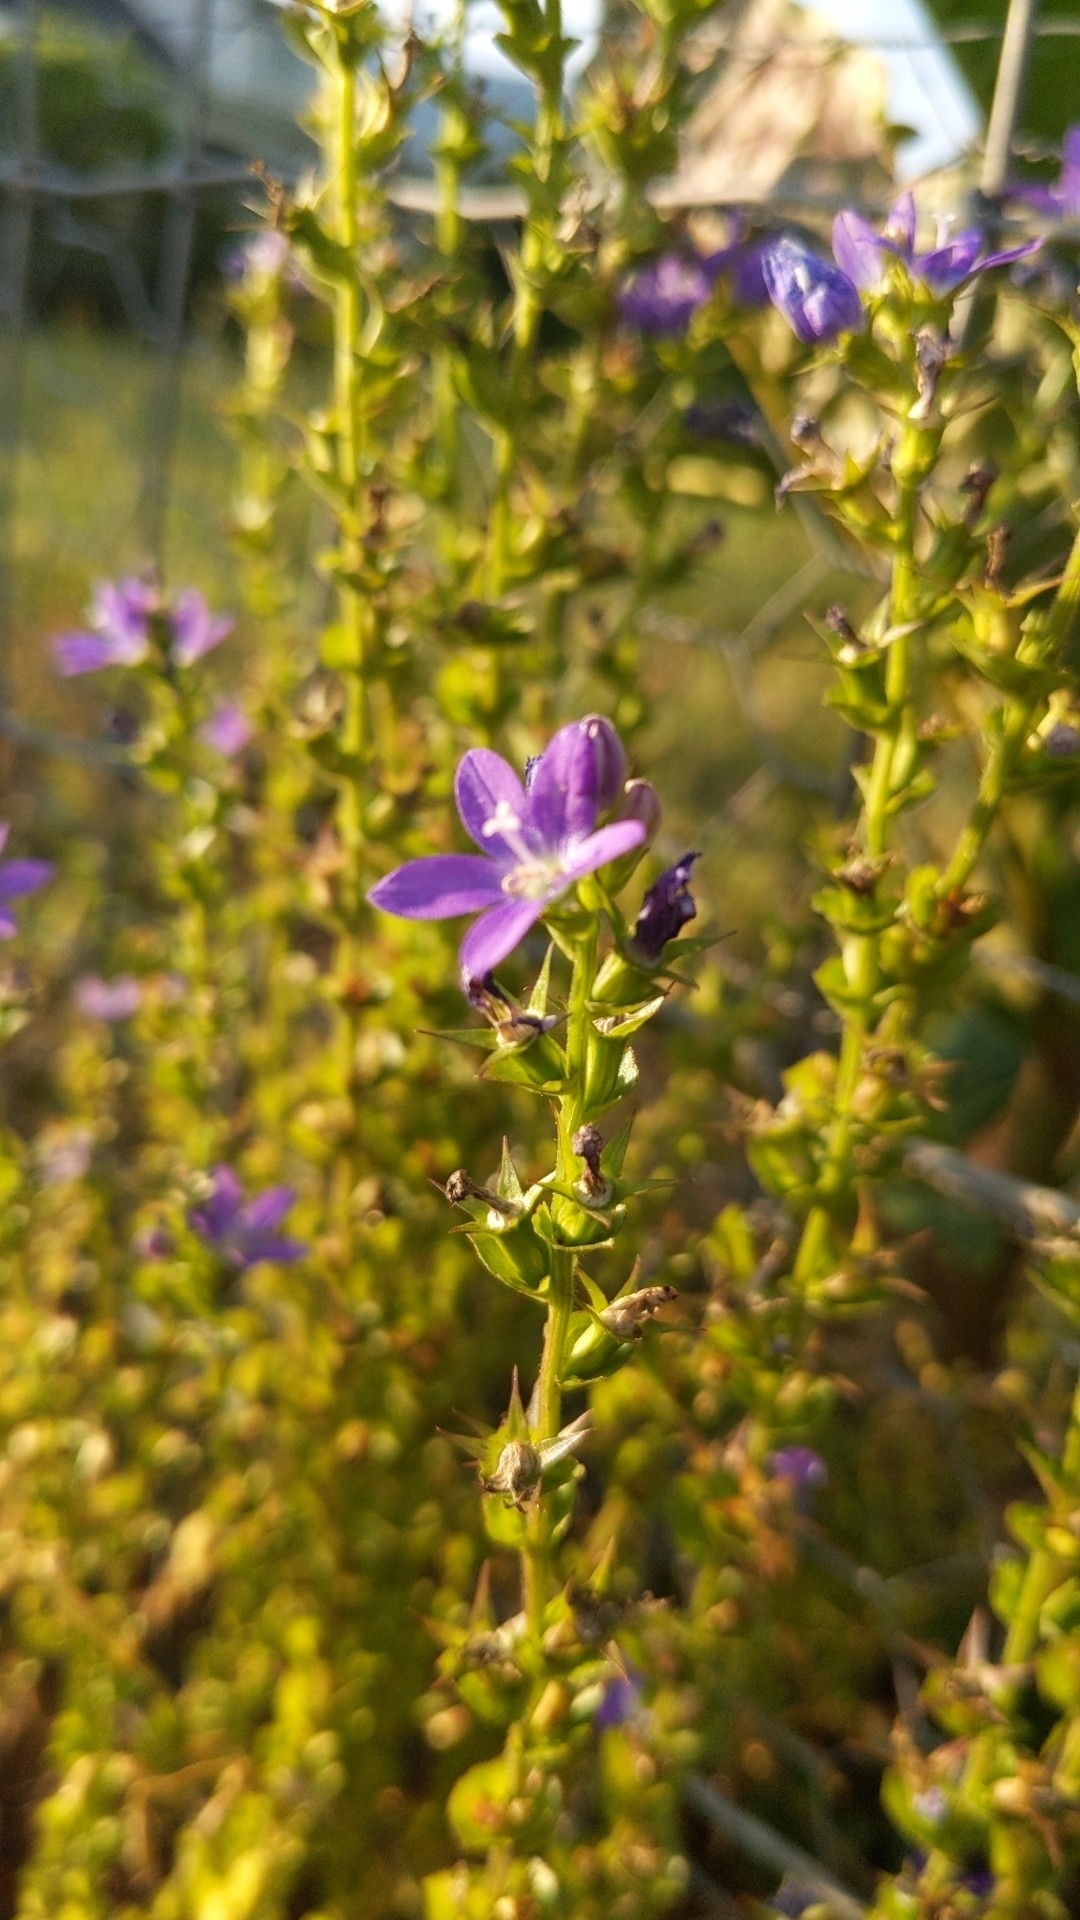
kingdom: Plantae
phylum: Tracheophyta
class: Magnoliopsida
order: Asterales
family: Campanulaceae
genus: Triodanis
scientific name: Triodanis perfoliata
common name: Clasping venus' looking-glass
